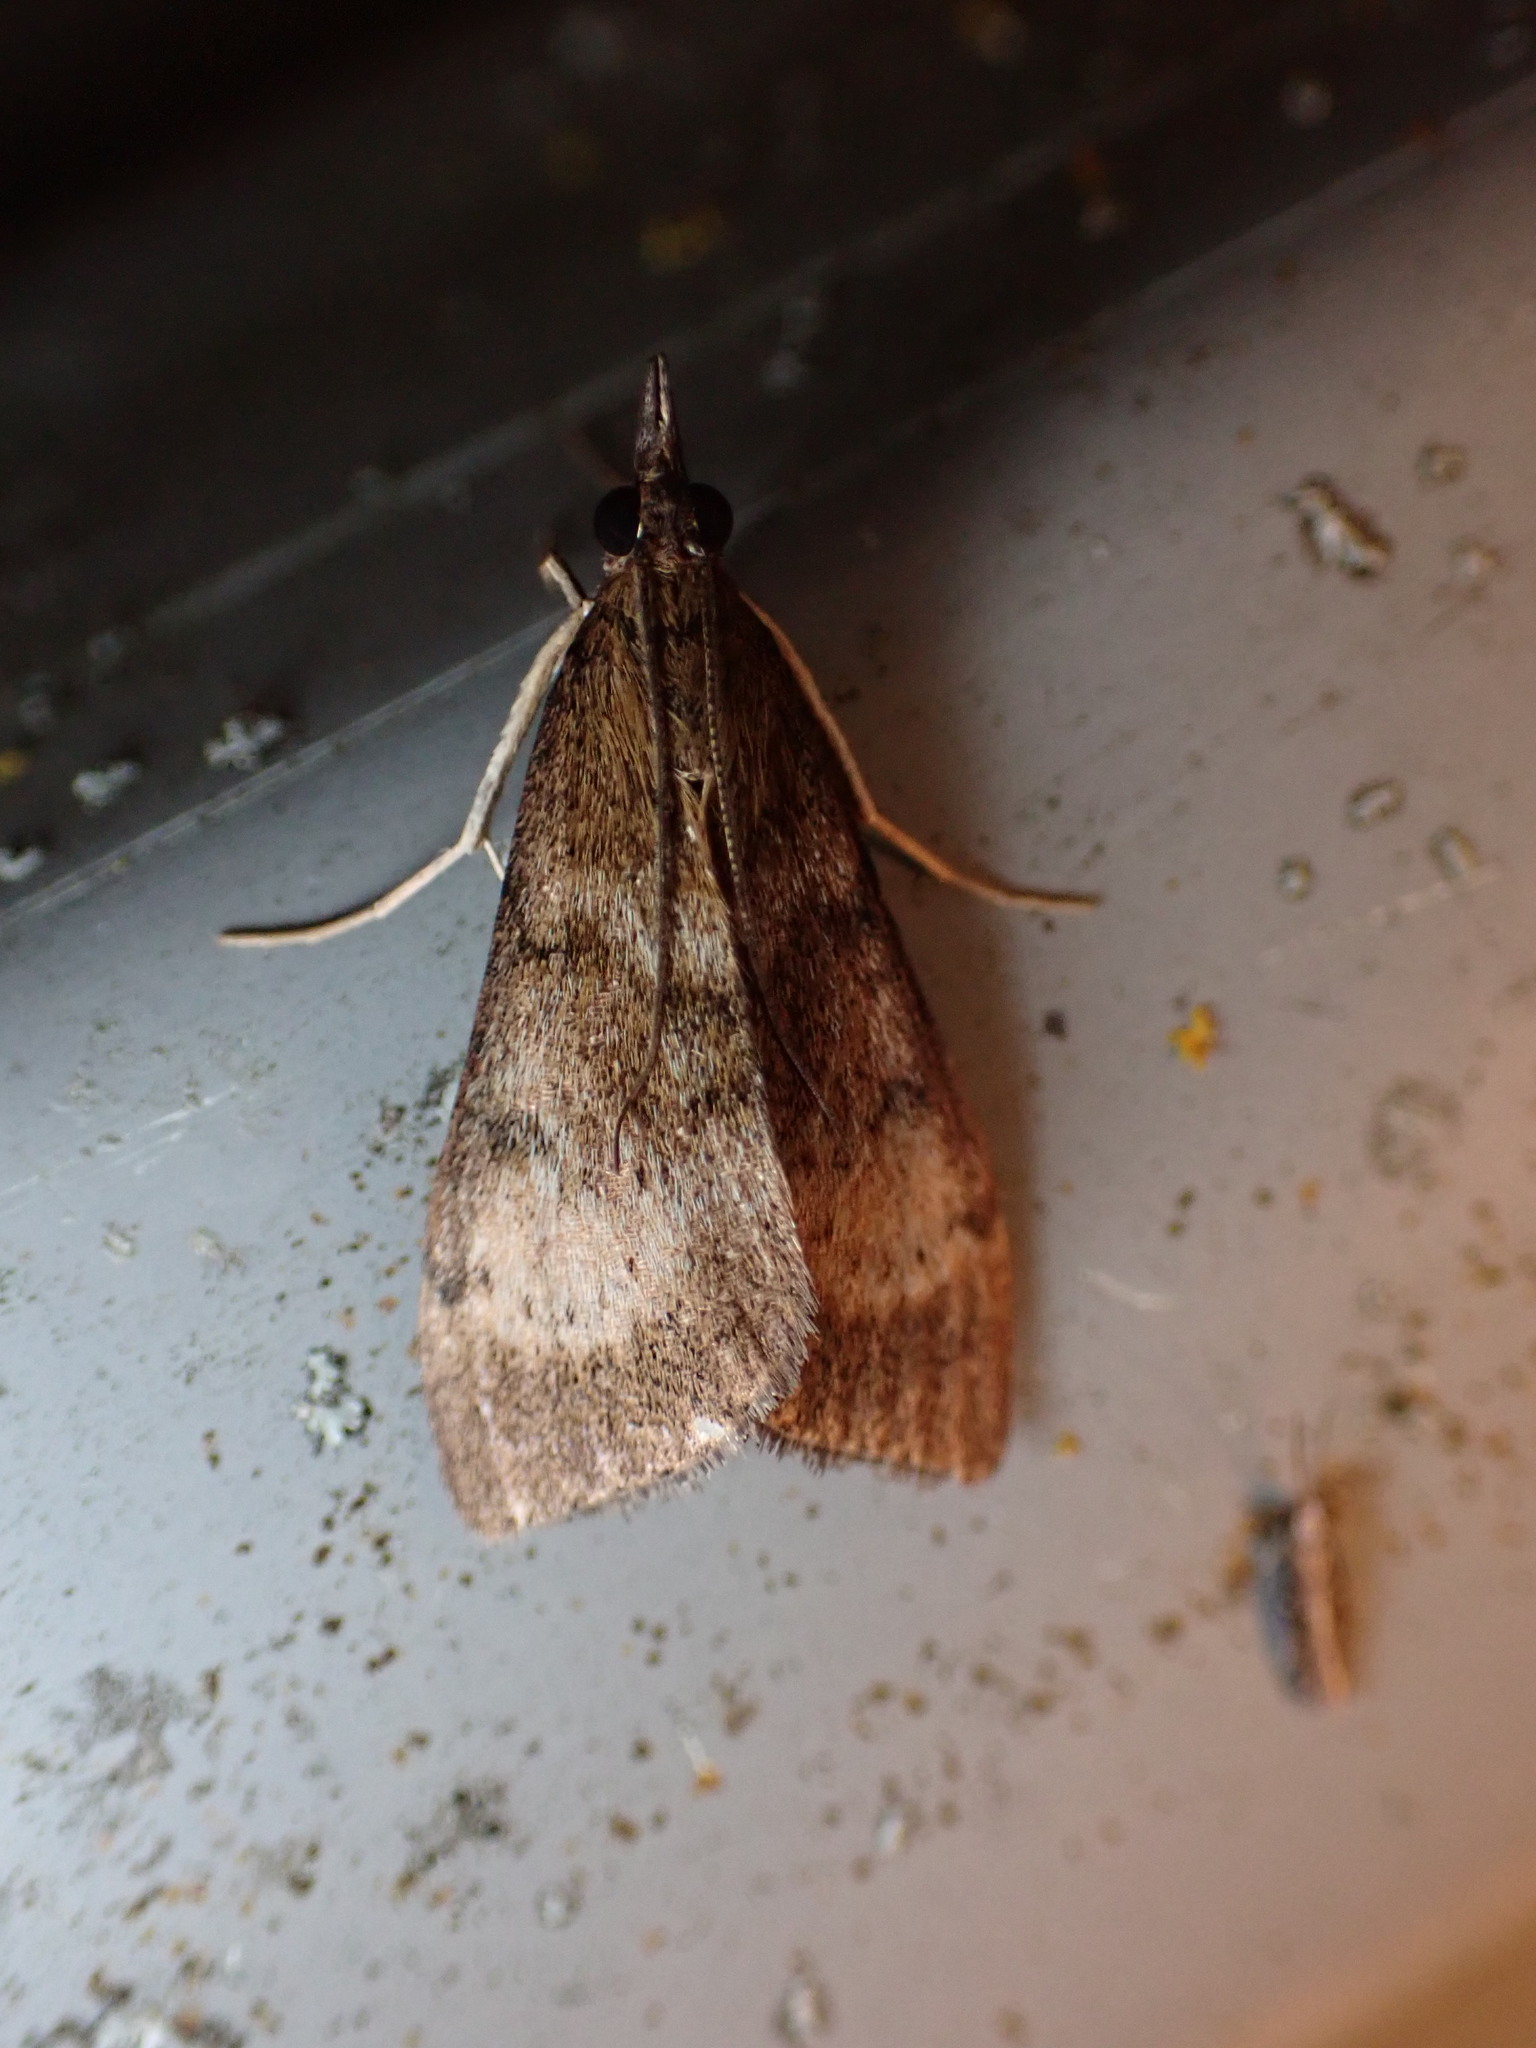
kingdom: Animalia
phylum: Arthropoda
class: Insecta
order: Lepidoptera
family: Crambidae
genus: Uresiphita
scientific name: Uresiphita
